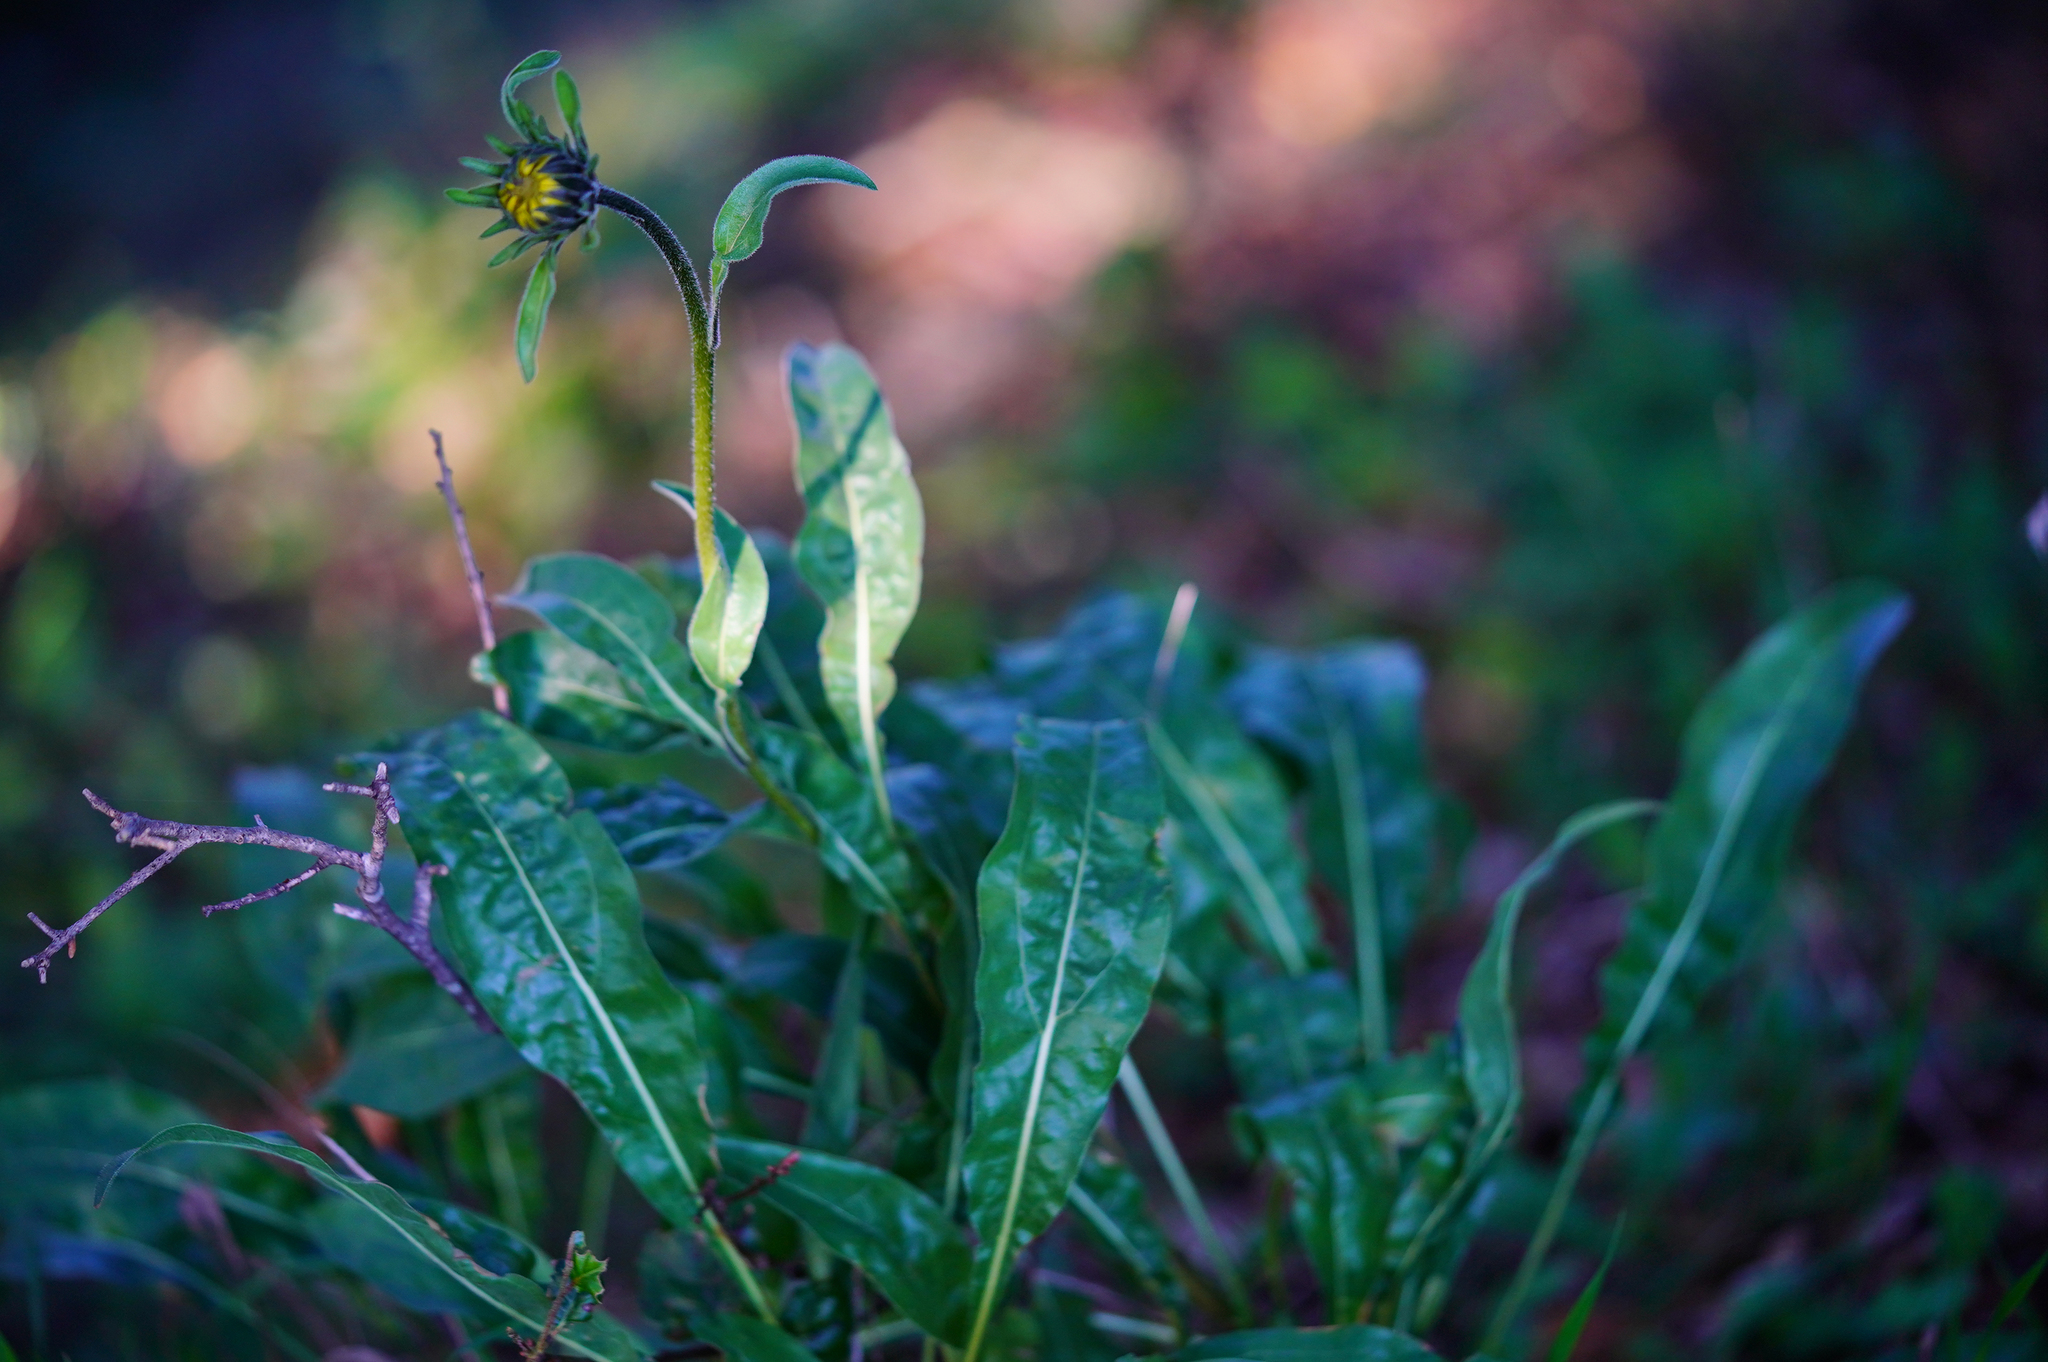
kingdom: Plantae
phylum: Tracheophyta
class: Magnoliopsida
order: Asterales
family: Asteraceae
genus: Helianthella
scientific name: Helianthella castanea
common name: Diablo helianthella
